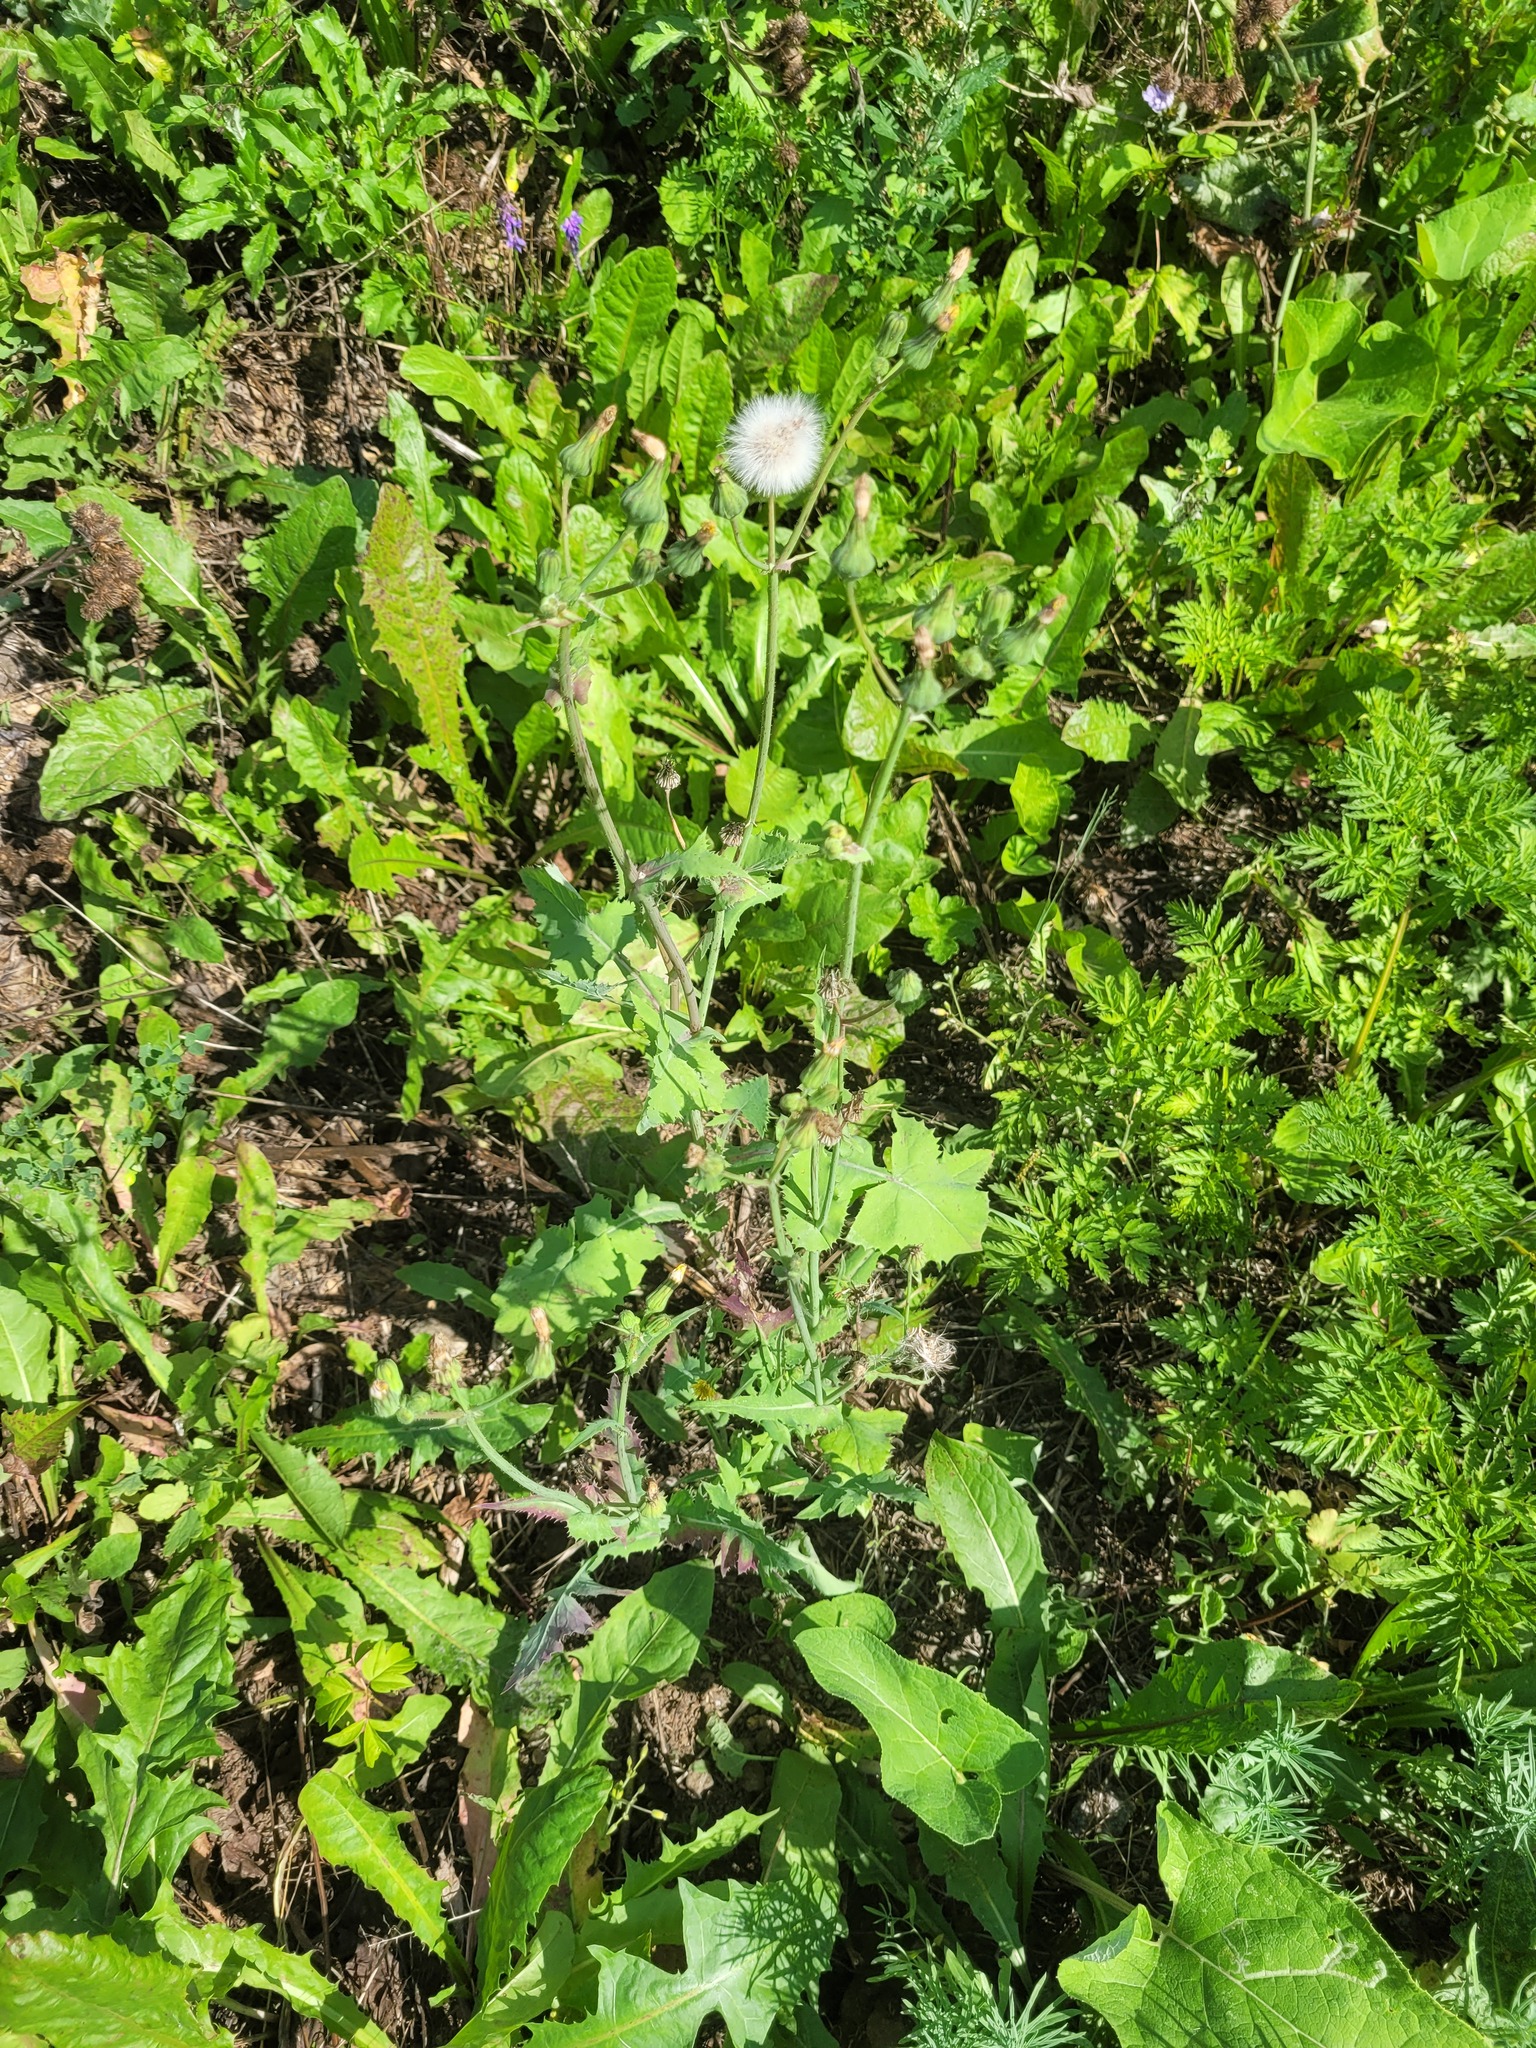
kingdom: Plantae
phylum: Tracheophyta
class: Magnoliopsida
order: Asterales
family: Asteraceae
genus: Sonchus
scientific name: Sonchus oleraceus
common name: Common sowthistle
